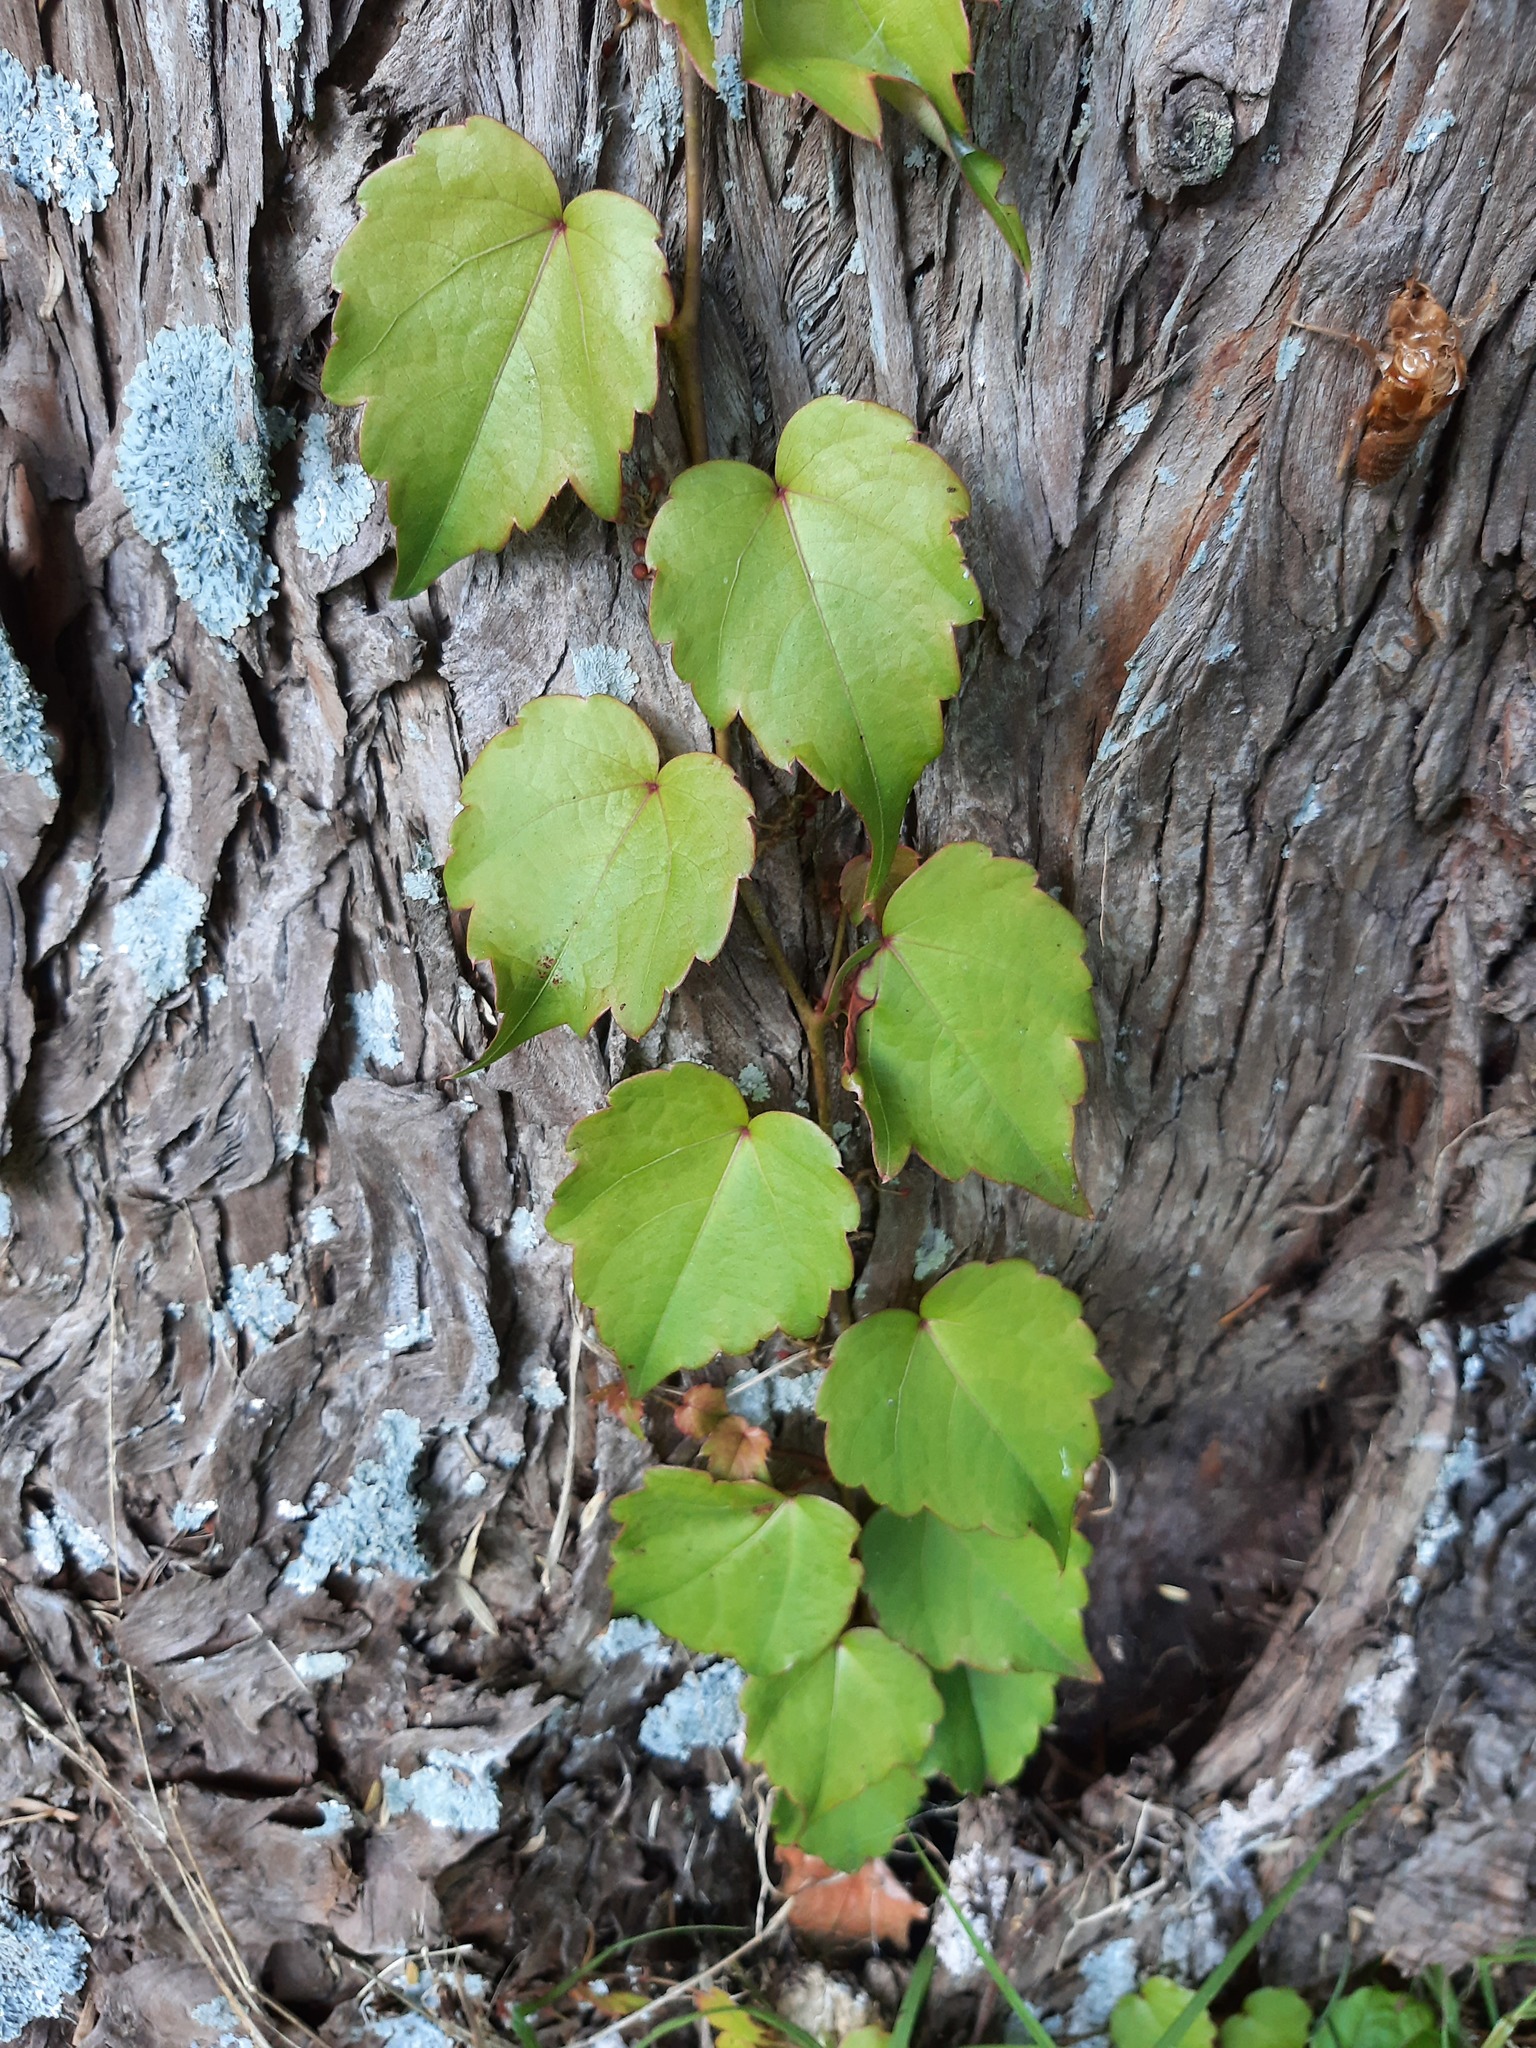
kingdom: Plantae
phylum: Tracheophyta
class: Magnoliopsida
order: Vitales
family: Vitaceae
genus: Parthenocissus
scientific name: Parthenocissus tricuspidata
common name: Boston ivy
